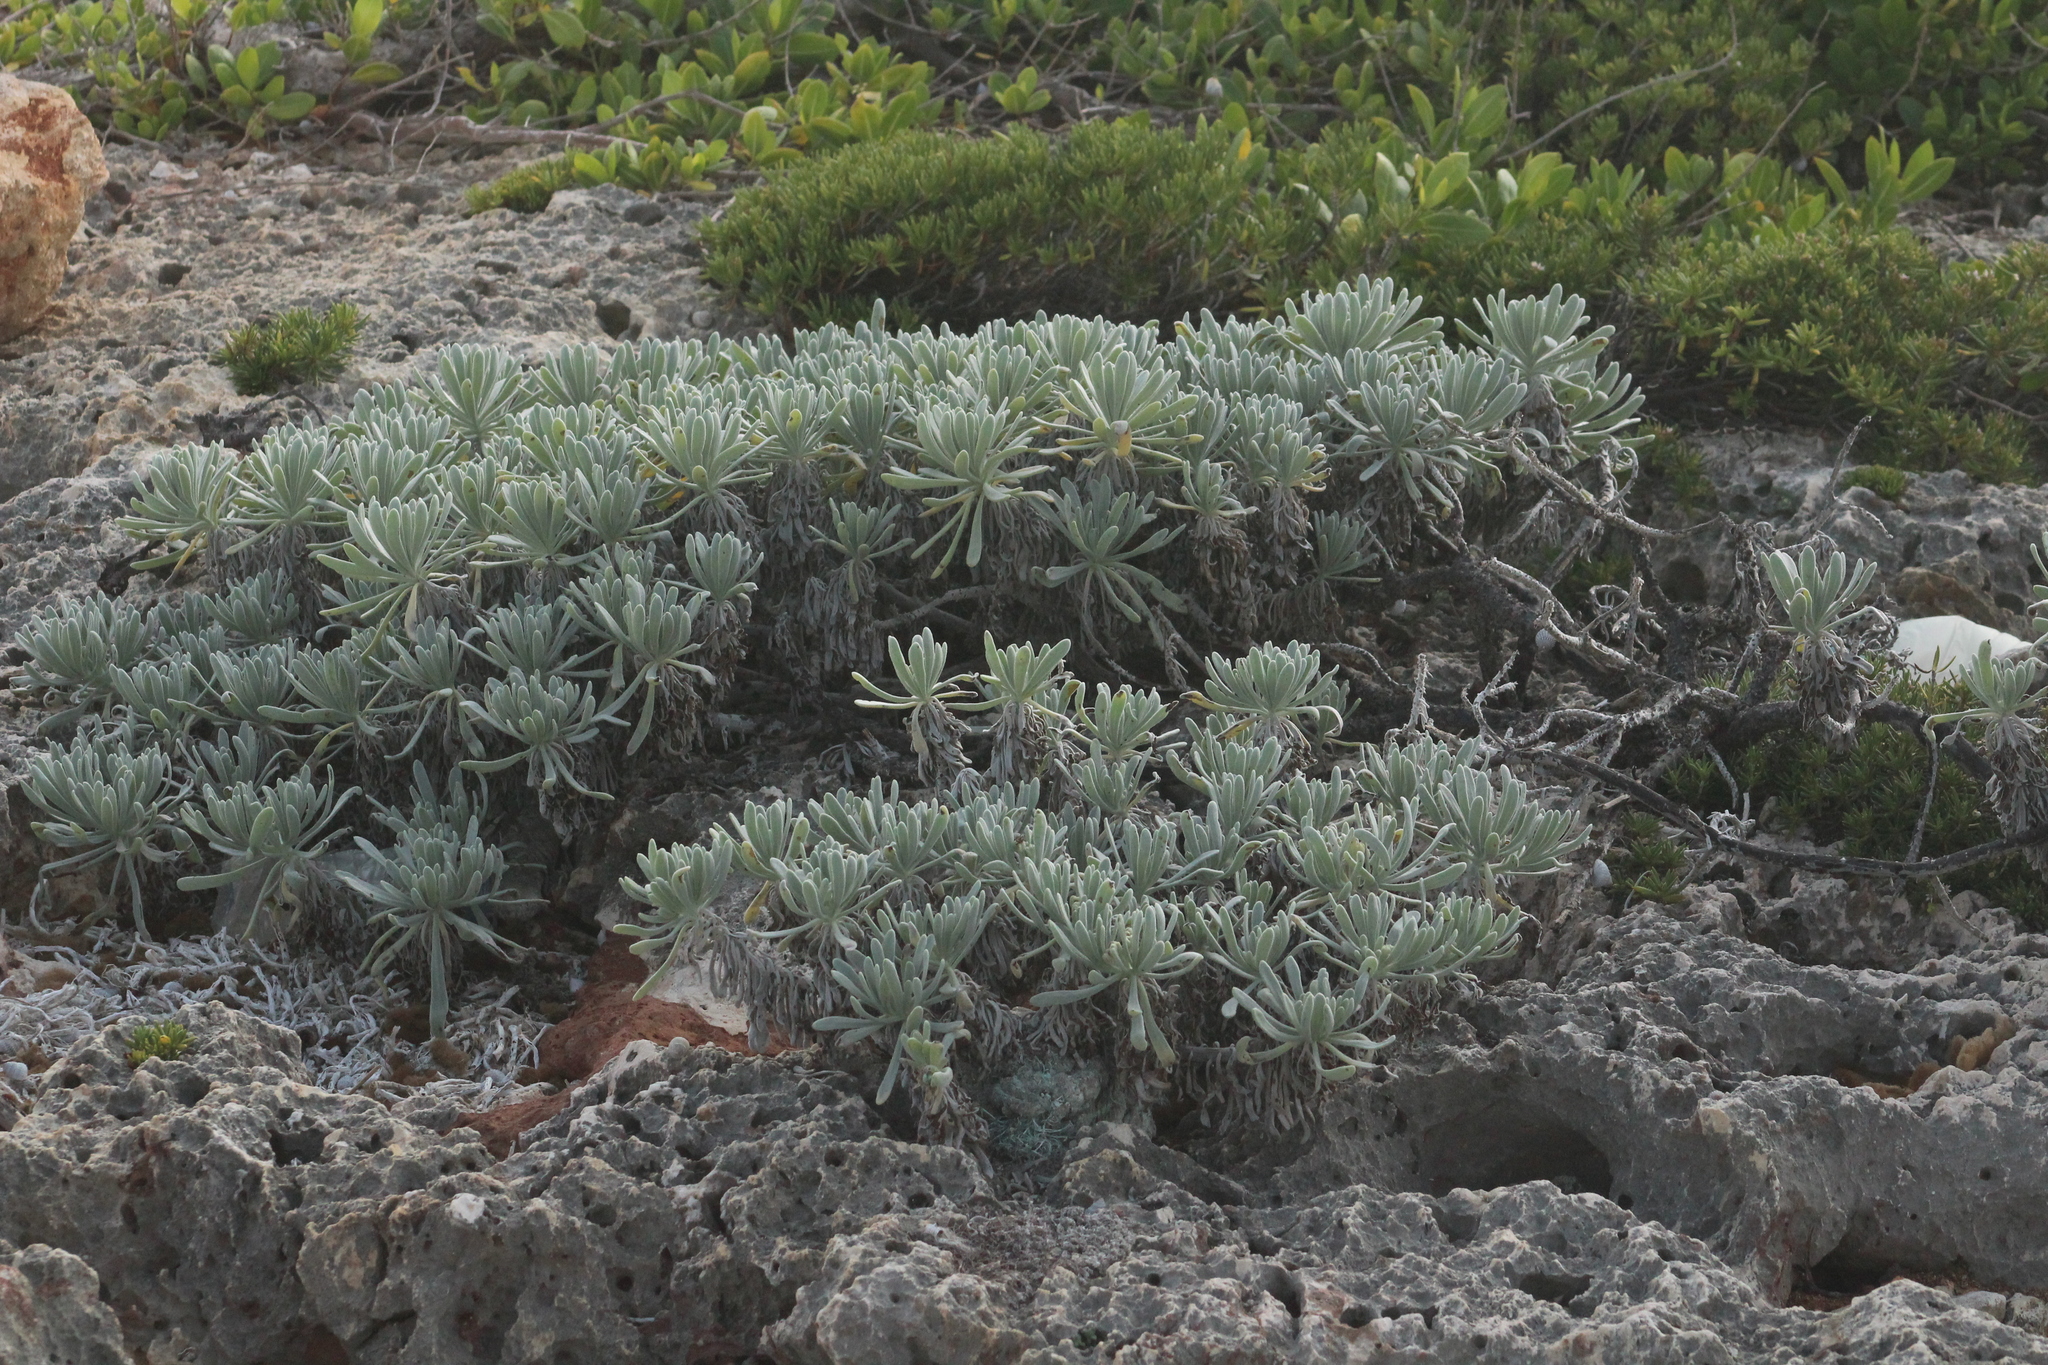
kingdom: Plantae
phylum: Tracheophyta
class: Magnoliopsida
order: Boraginales
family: Heliotropiaceae
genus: Tournefortia
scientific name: Tournefortia gnaphalodes
